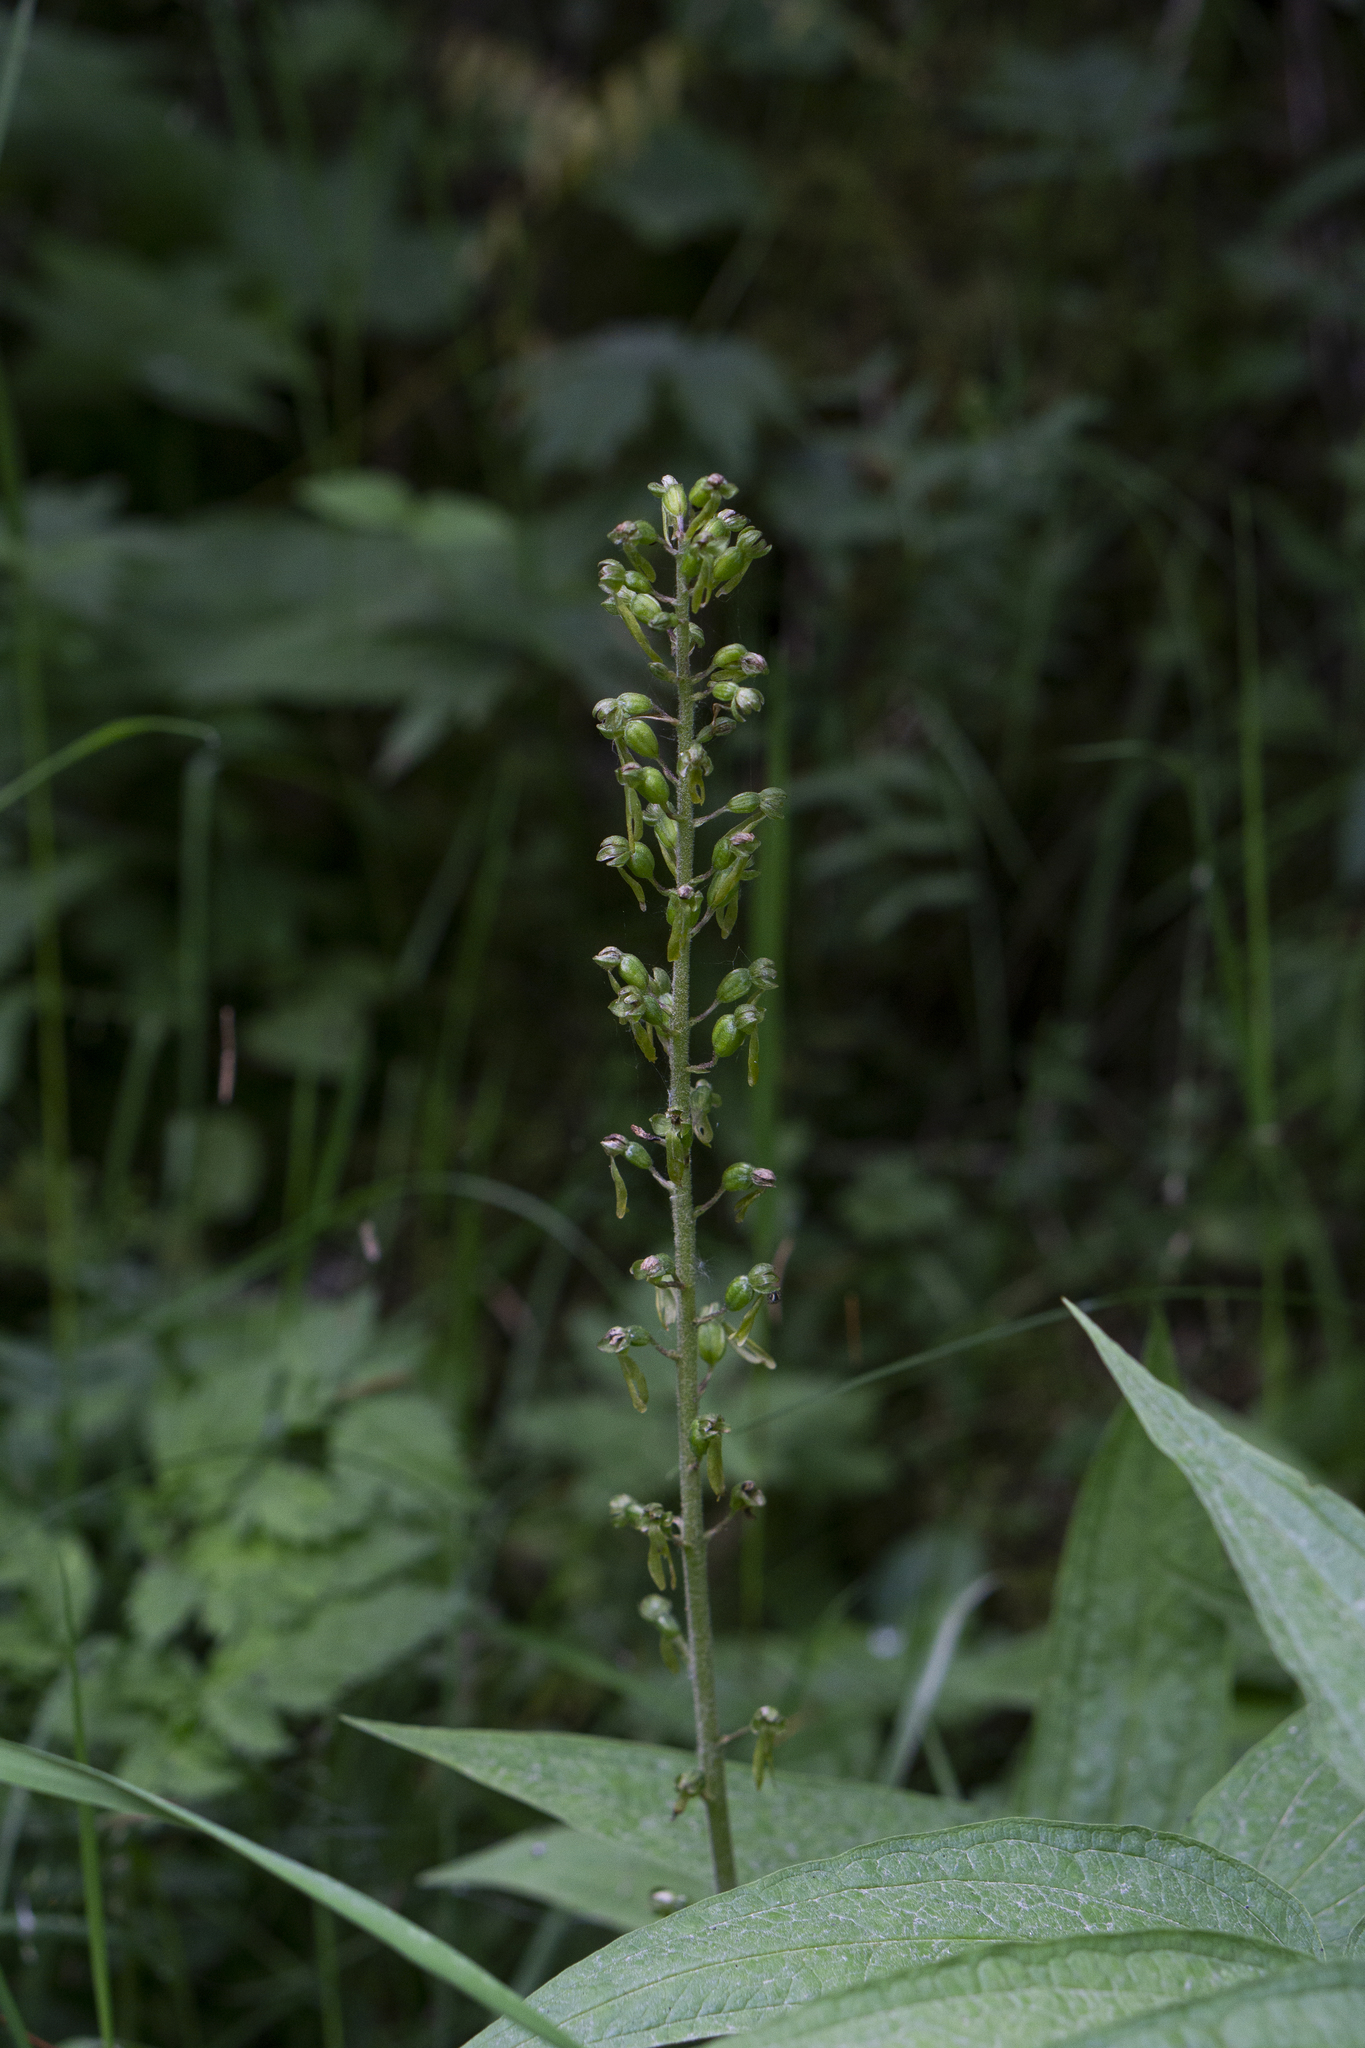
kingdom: Plantae
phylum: Tracheophyta
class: Liliopsida
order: Asparagales
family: Orchidaceae
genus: Neottia
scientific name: Neottia ovata
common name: Common twayblade
